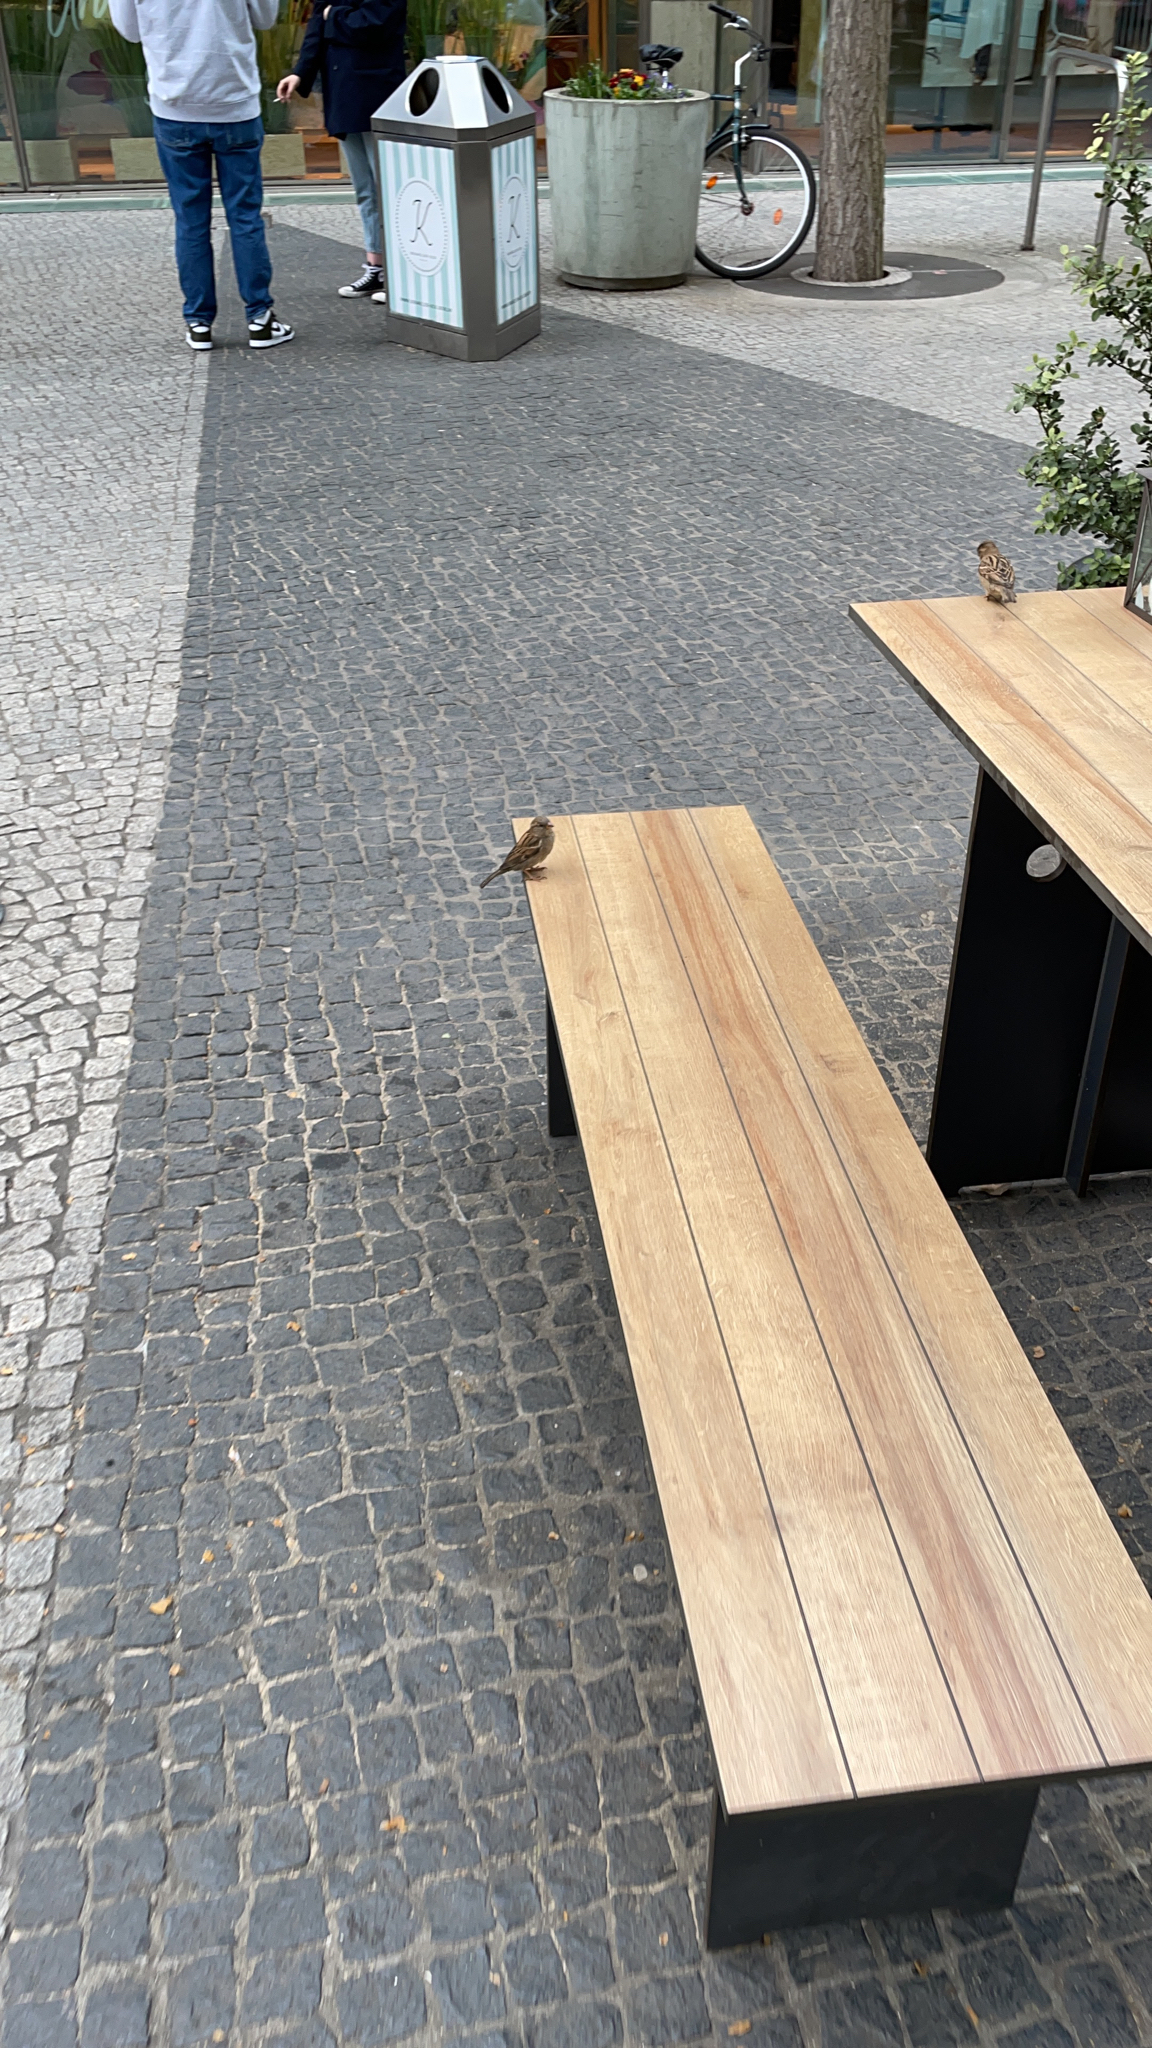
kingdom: Animalia
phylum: Chordata
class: Aves
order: Passeriformes
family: Passeridae
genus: Passer
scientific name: Passer domesticus
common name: House sparrow
